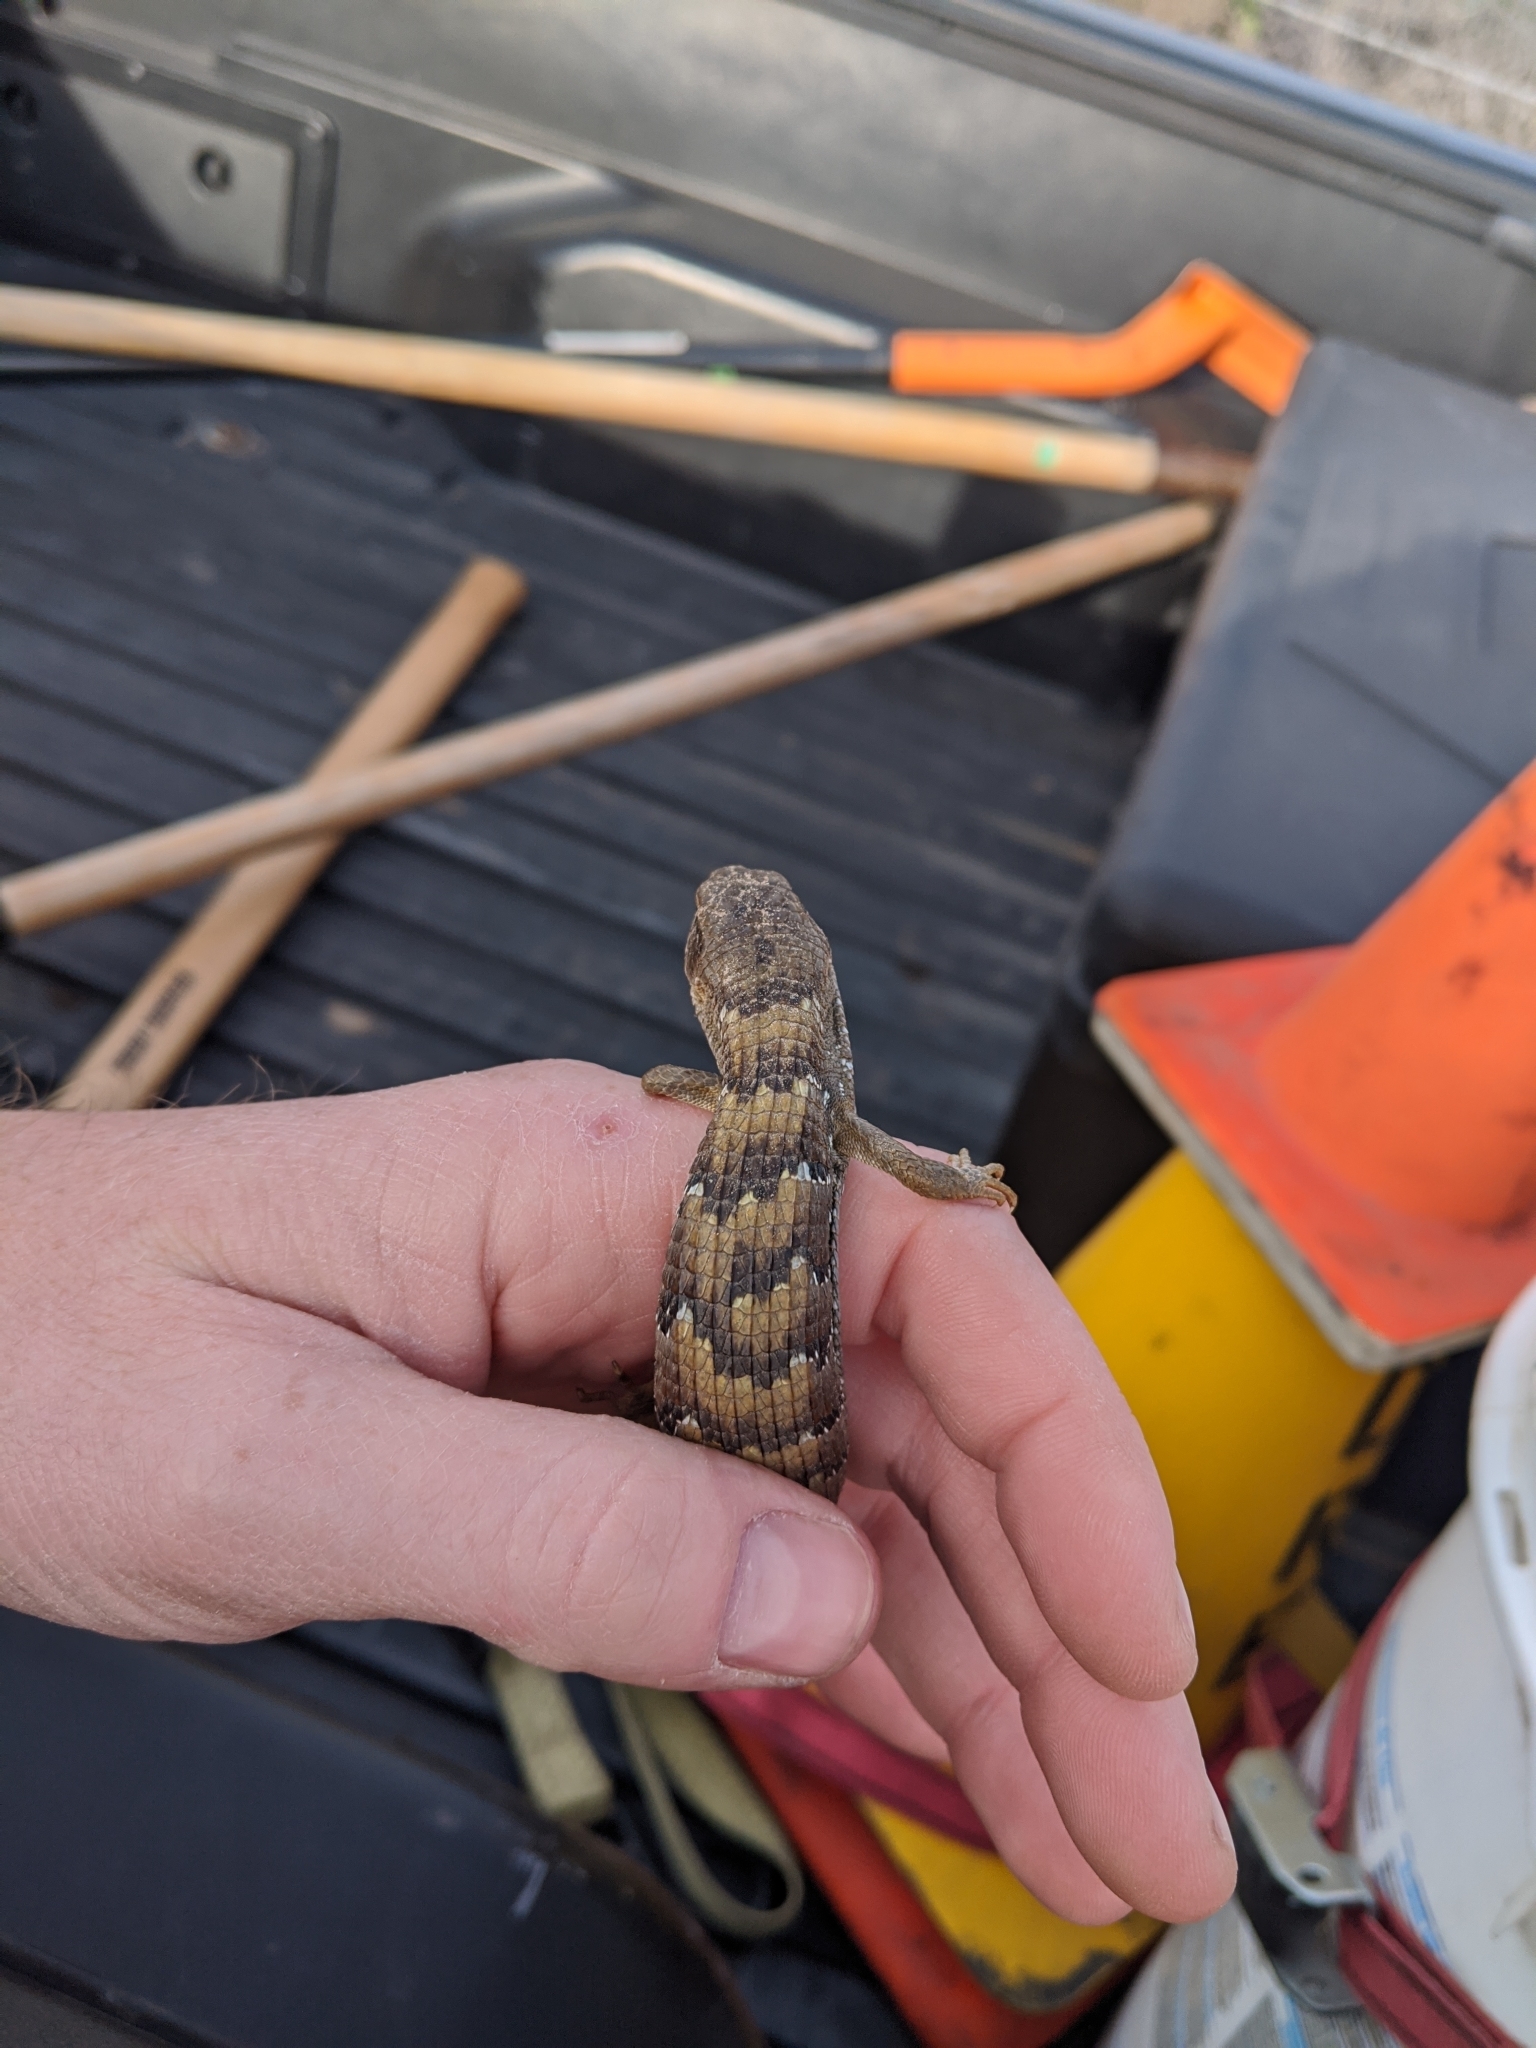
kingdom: Animalia
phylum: Chordata
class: Squamata
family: Anguidae
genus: Elgaria
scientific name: Elgaria multicarinata
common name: Southern alligator lizard
